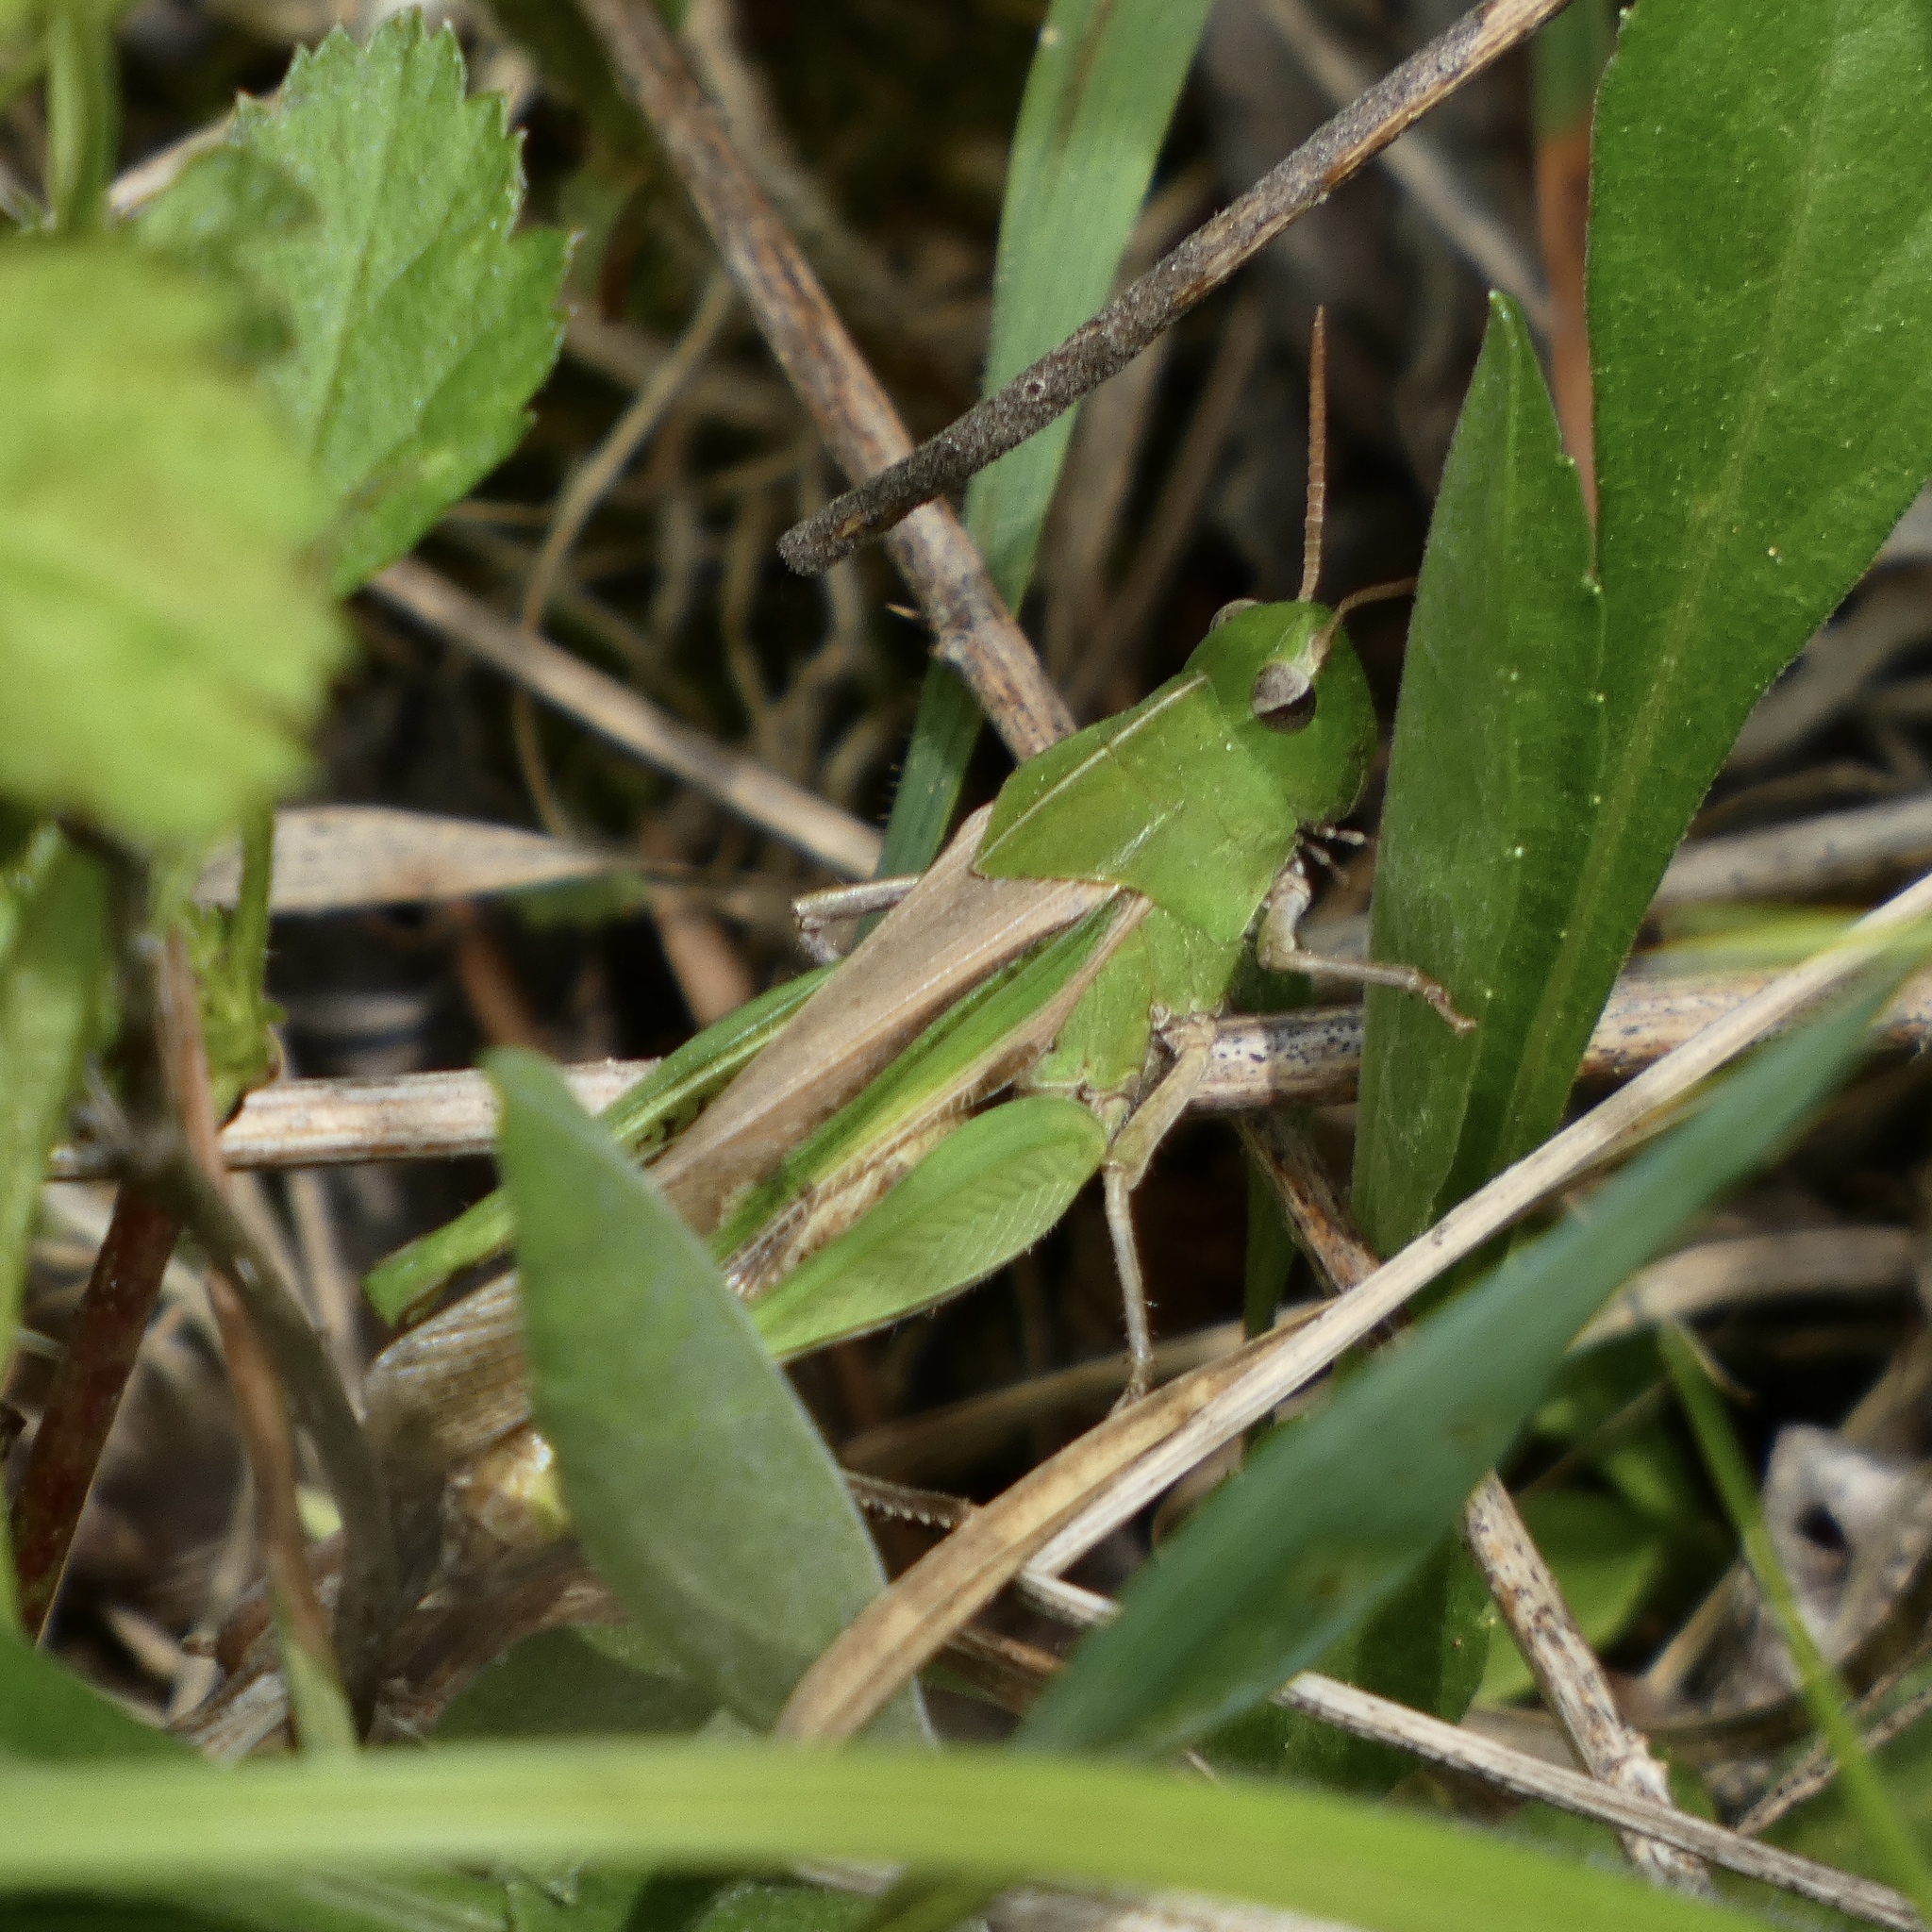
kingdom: Animalia
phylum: Arthropoda
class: Insecta
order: Orthoptera
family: Acrididae
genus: Chortophaga
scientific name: Chortophaga viridifasciata
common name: Green-striped grasshopper
